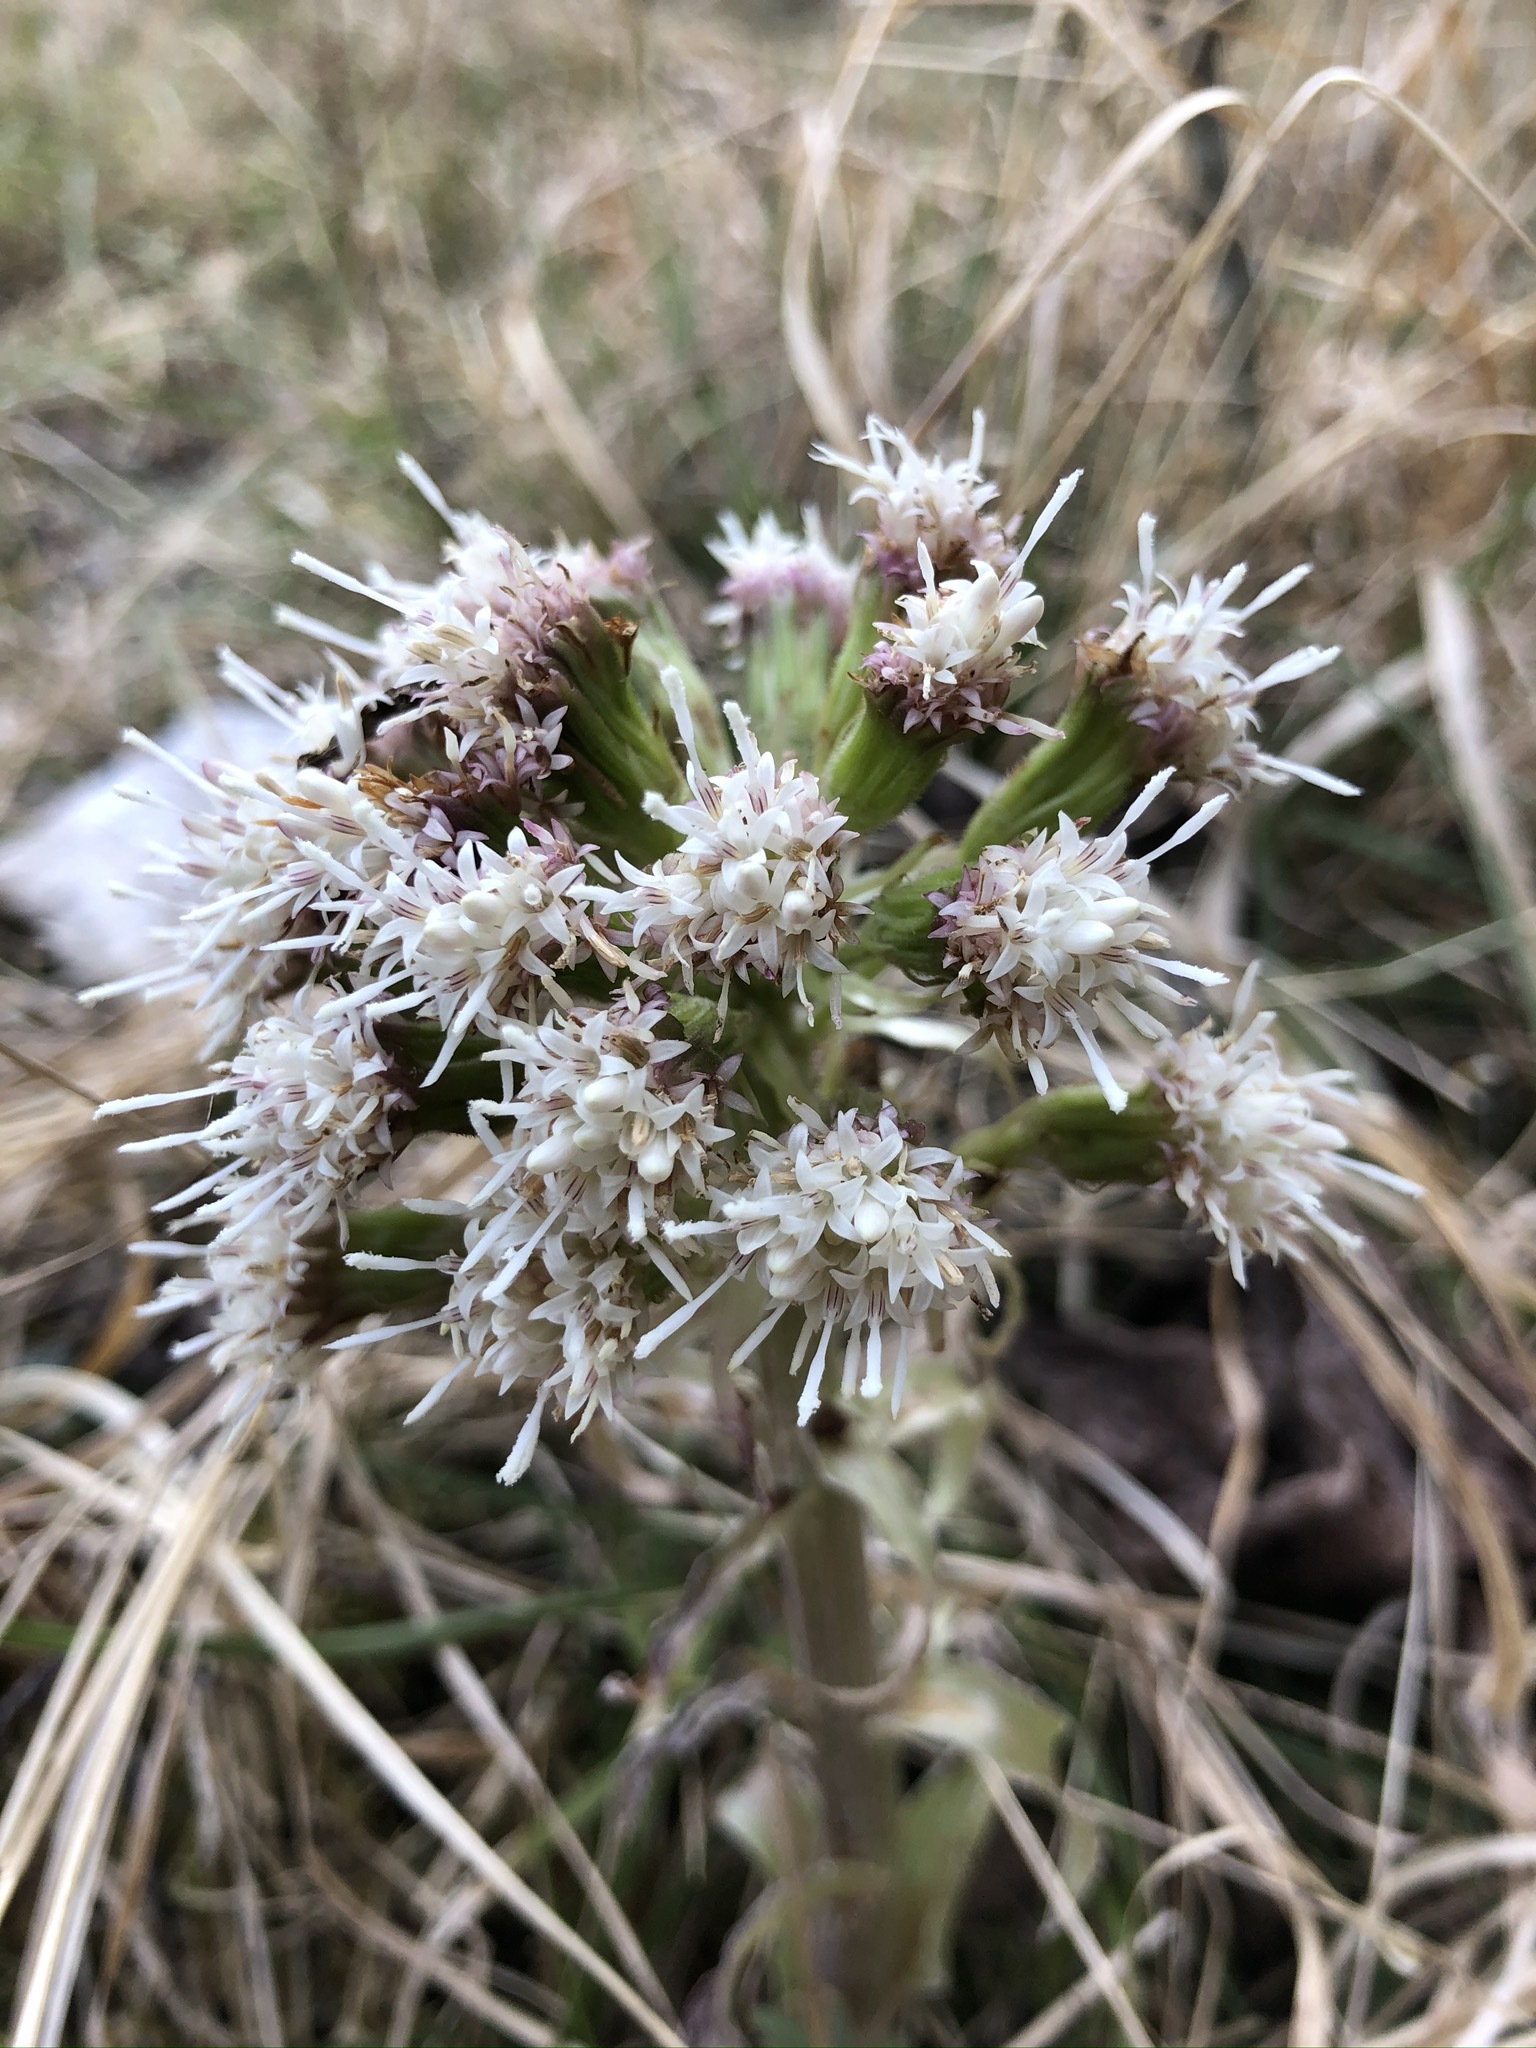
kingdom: Plantae
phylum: Tracheophyta
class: Magnoliopsida
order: Asterales
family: Asteraceae
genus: Petasites
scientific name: Petasites albus
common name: White butterbur
